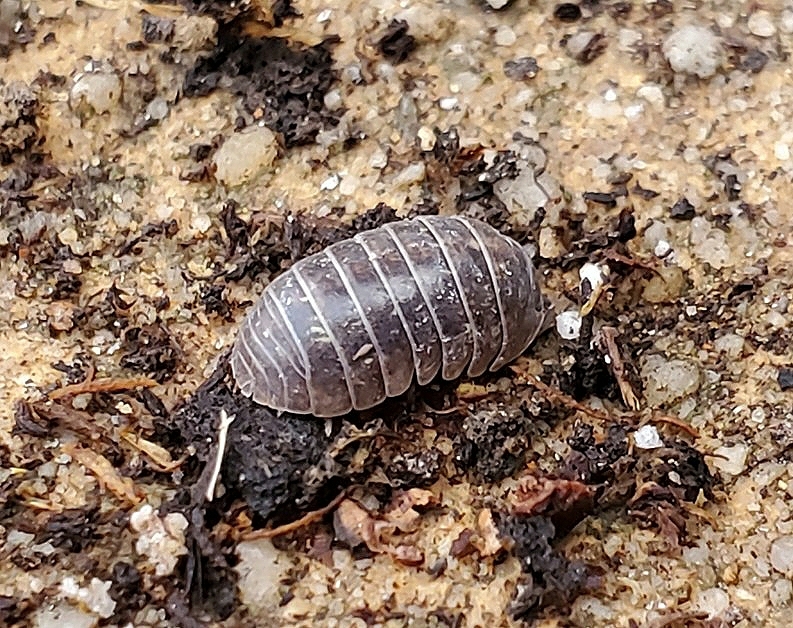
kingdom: Animalia
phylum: Arthropoda
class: Malacostraca
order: Isopoda
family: Armadillidiidae
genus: Armadillidium
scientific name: Armadillidium vulgare
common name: Common pill woodlouse
